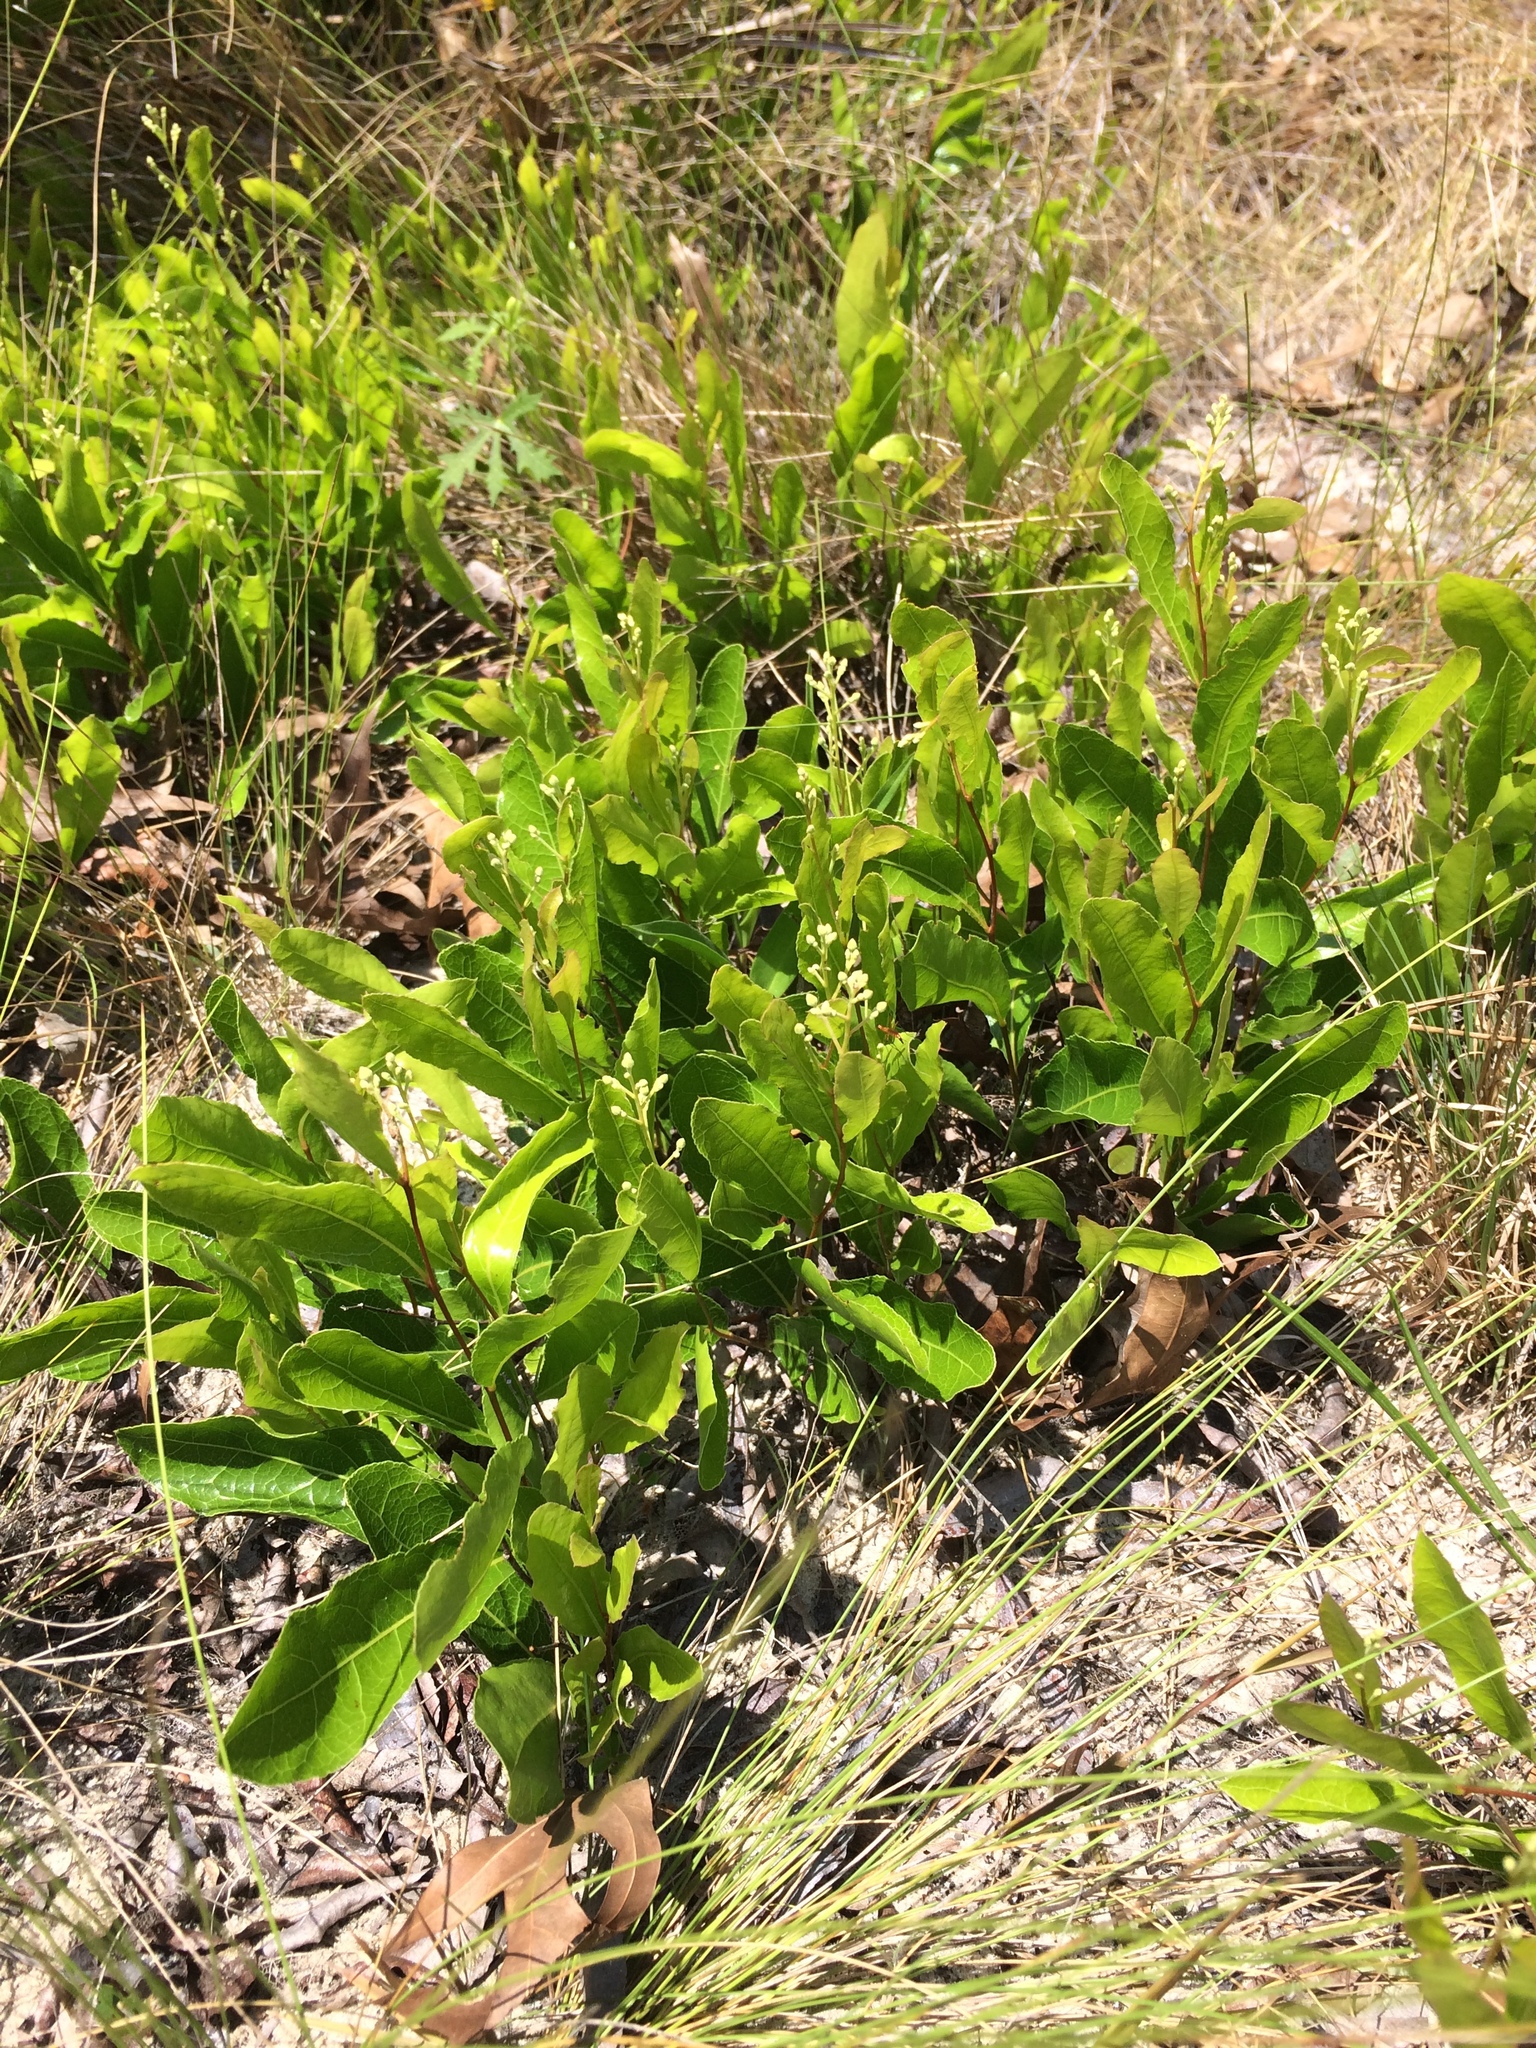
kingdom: Plantae
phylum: Tracheophyta
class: Magnoliopsida
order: Malpighiales
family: Chrysobalanaceae
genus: Geobalanus
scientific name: Geobalanus oblongifolius
